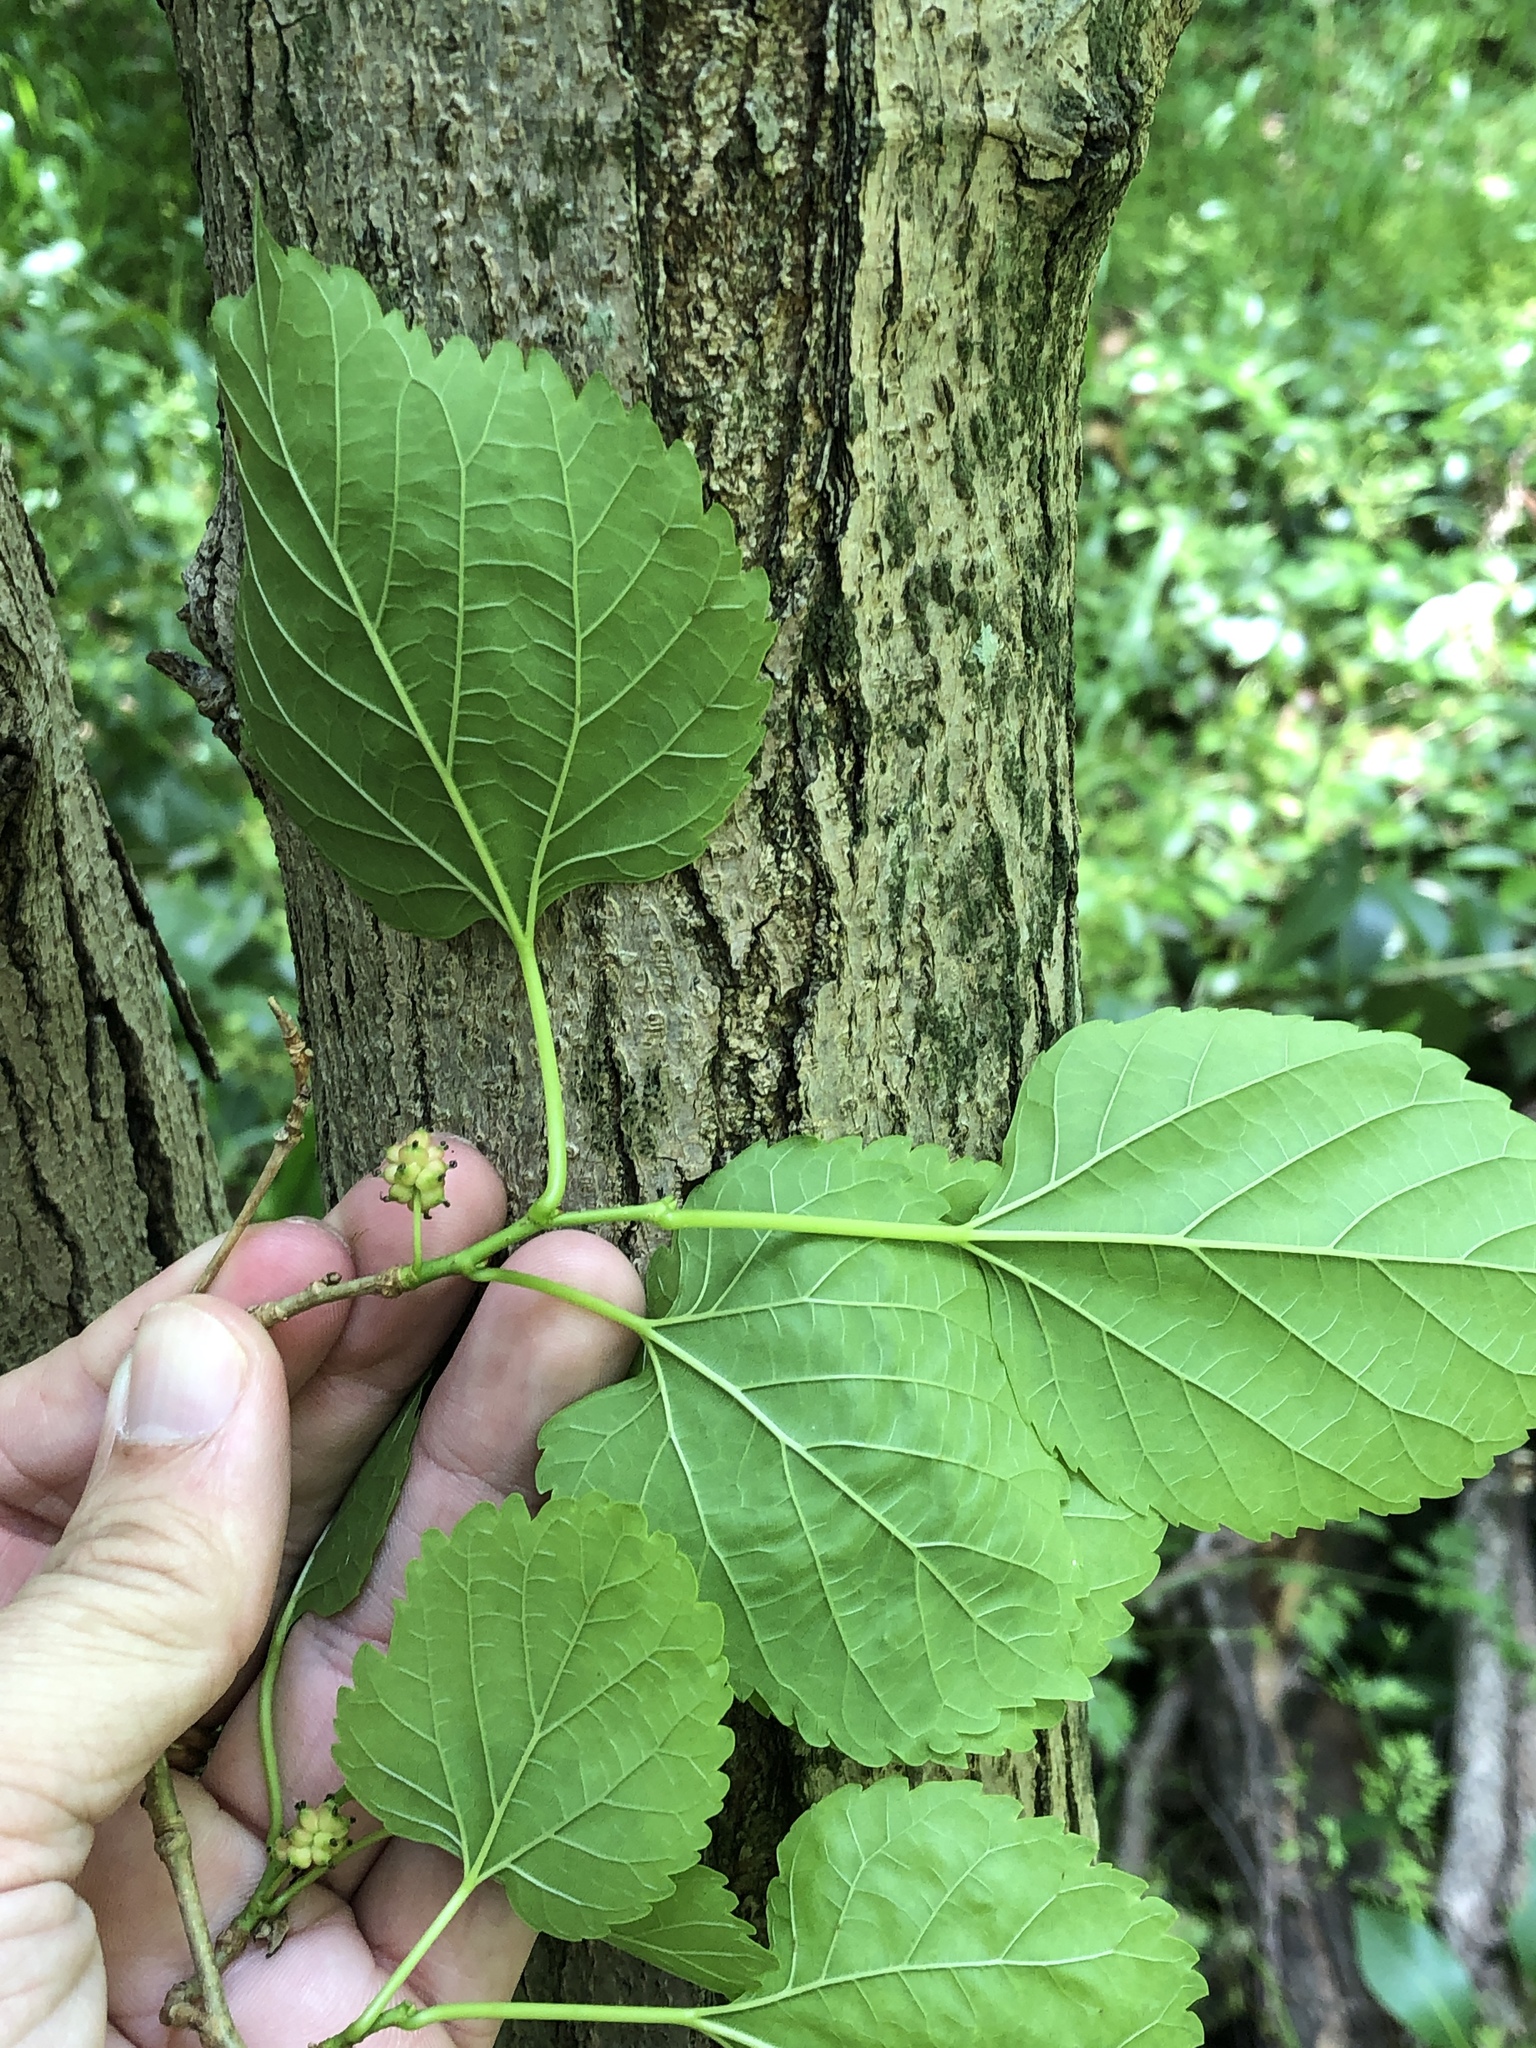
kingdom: Plantae
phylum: Tracheophyta
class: Magnoliopsida
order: Rosales
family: Moraceae
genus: Morus
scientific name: Morus rubra
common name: Red mulberry
